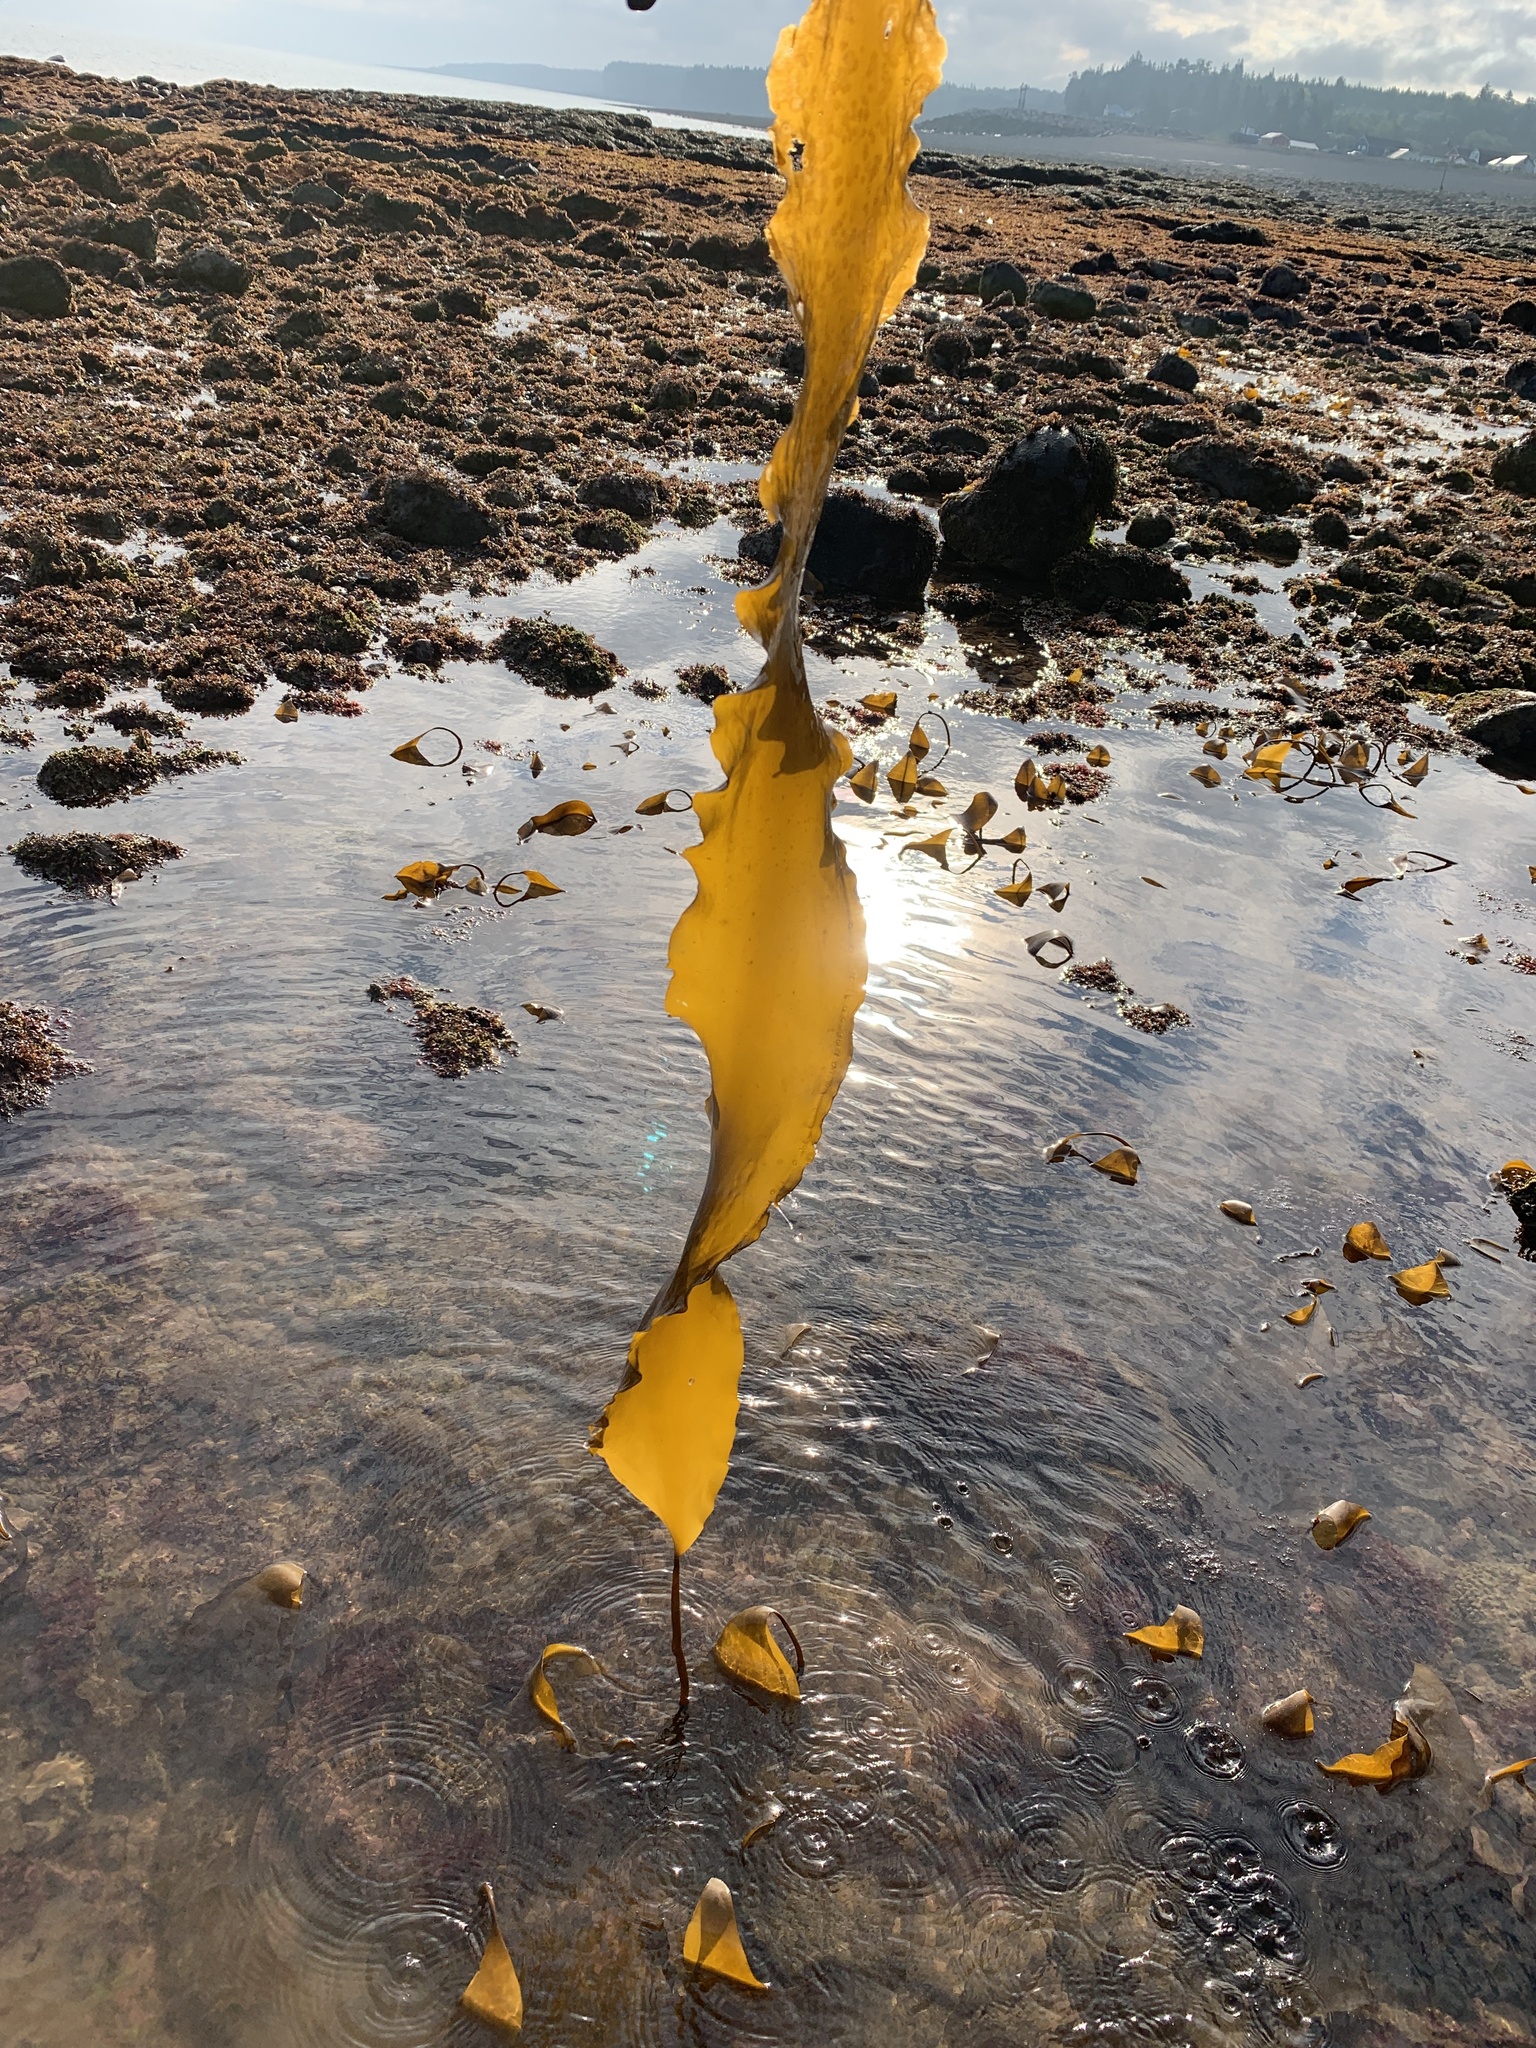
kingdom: Chromista
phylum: Ochrophyta
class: Phaeophyceae
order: Laminariales
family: Laminariaceae
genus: Saccharina
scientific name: Saccharina latissima
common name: Poor man's weather glass
